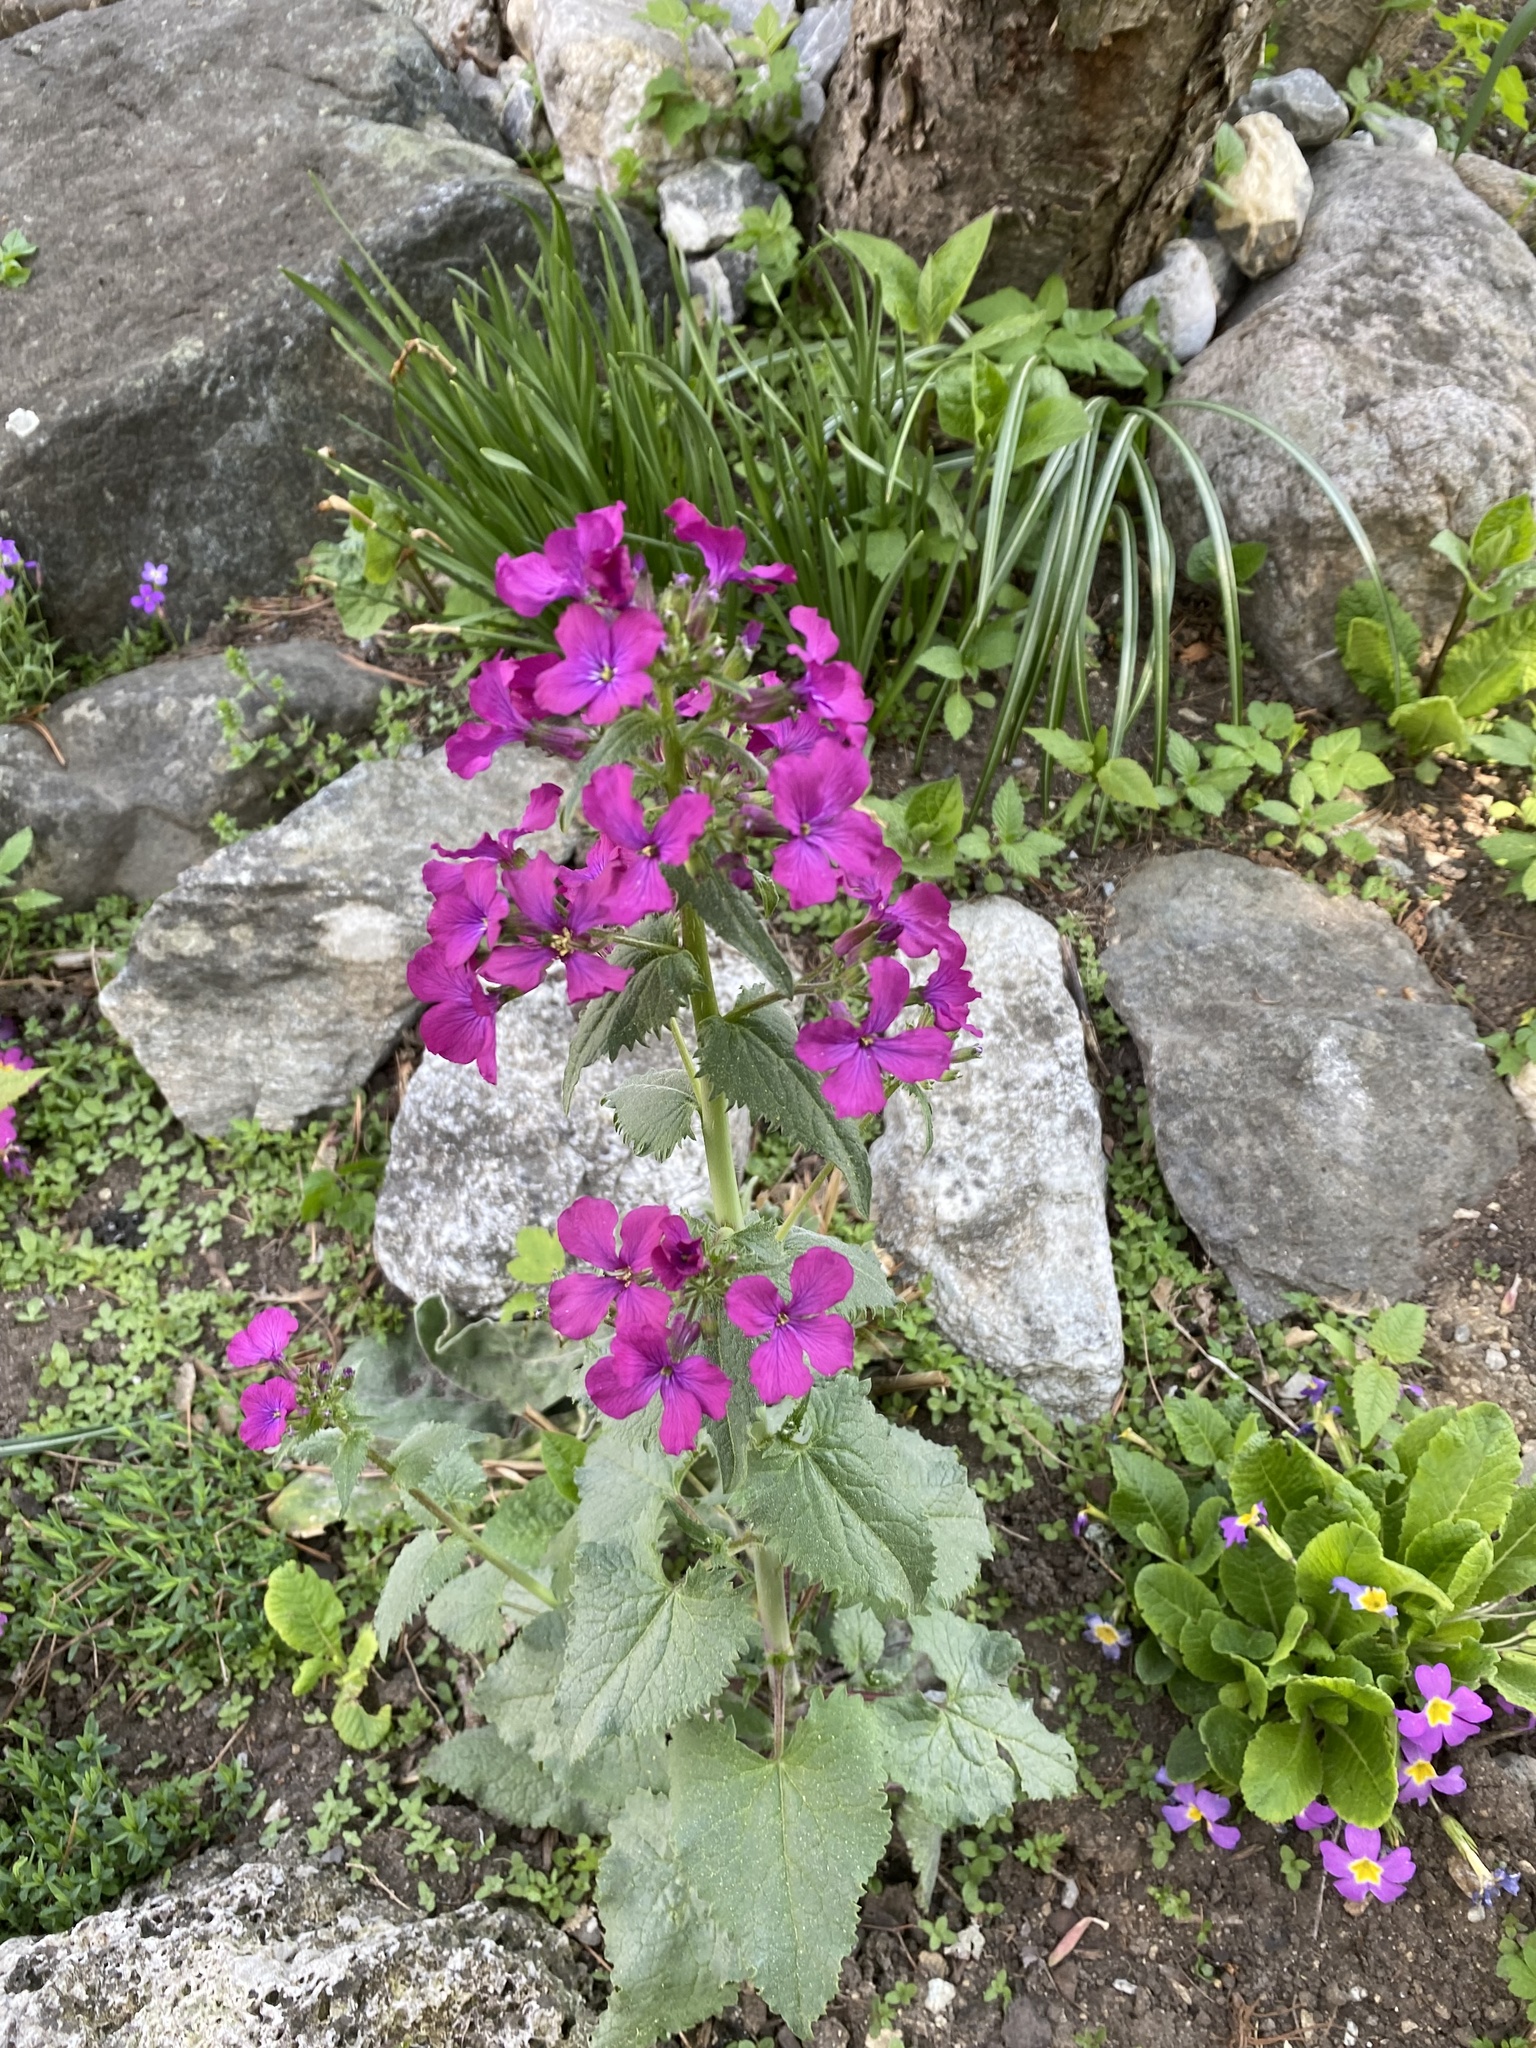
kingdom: Plantae
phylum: Tracheophyta
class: Magnoliopsida
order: Brassicales
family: Brassicaceae
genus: Lunaria
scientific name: Lunaria annua
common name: Honesty
